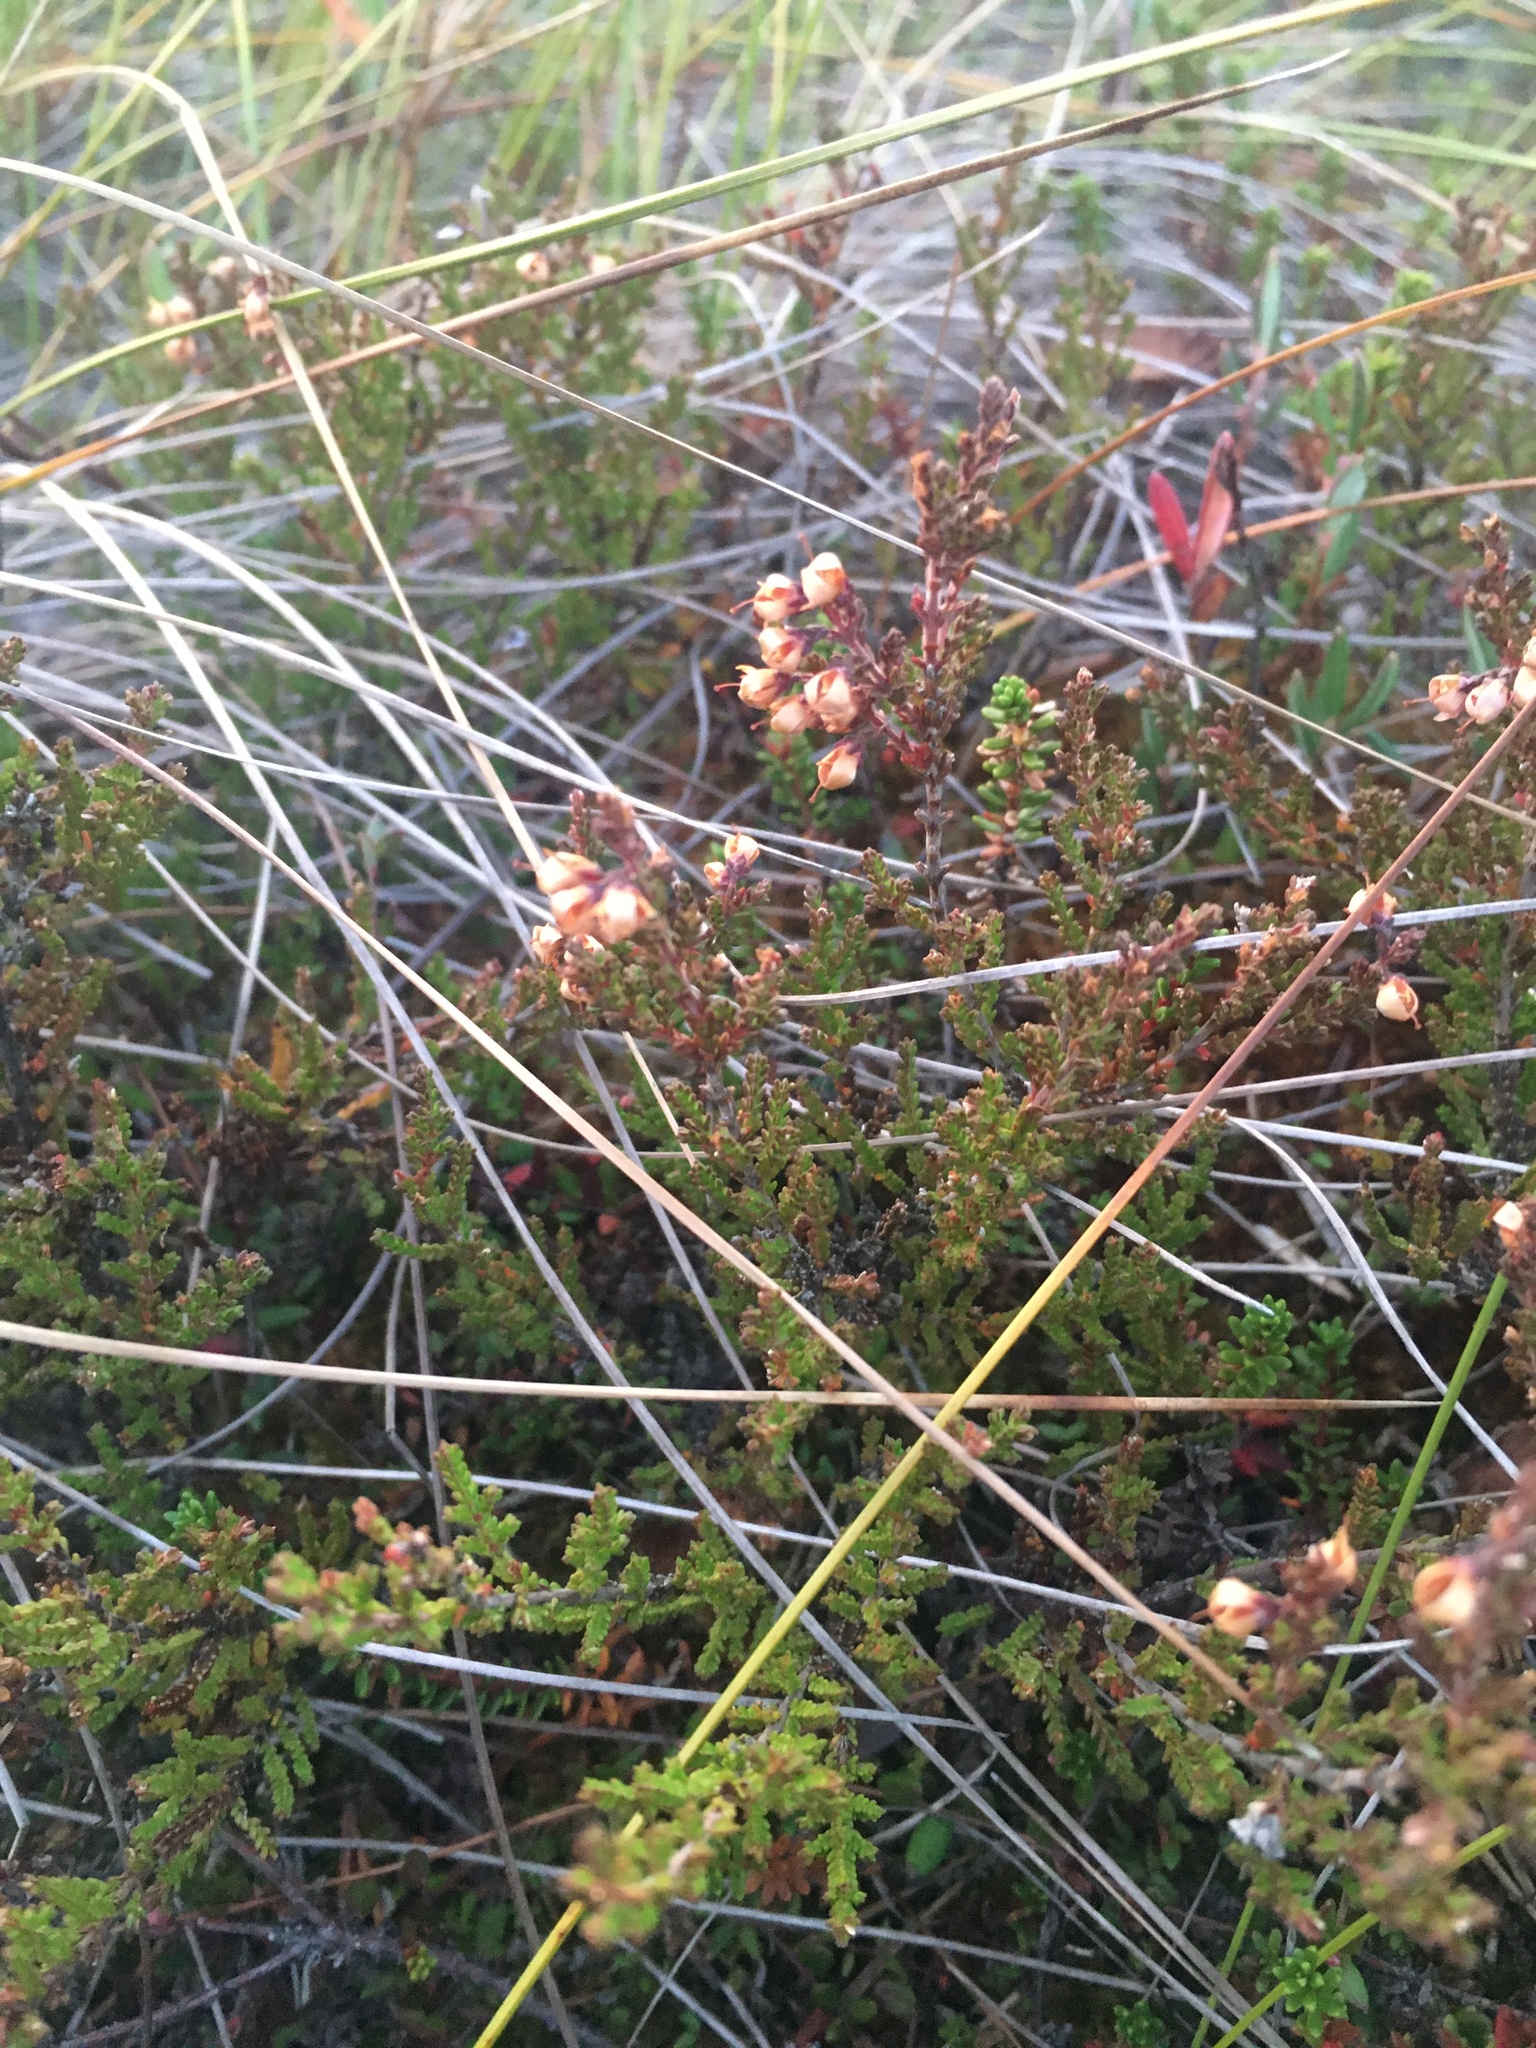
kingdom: Plantae
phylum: Tracheophyta
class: Magnoliopsida
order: Ericales
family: Ericaceae
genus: Calluna
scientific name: Calluna vulgaris
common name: Heather
